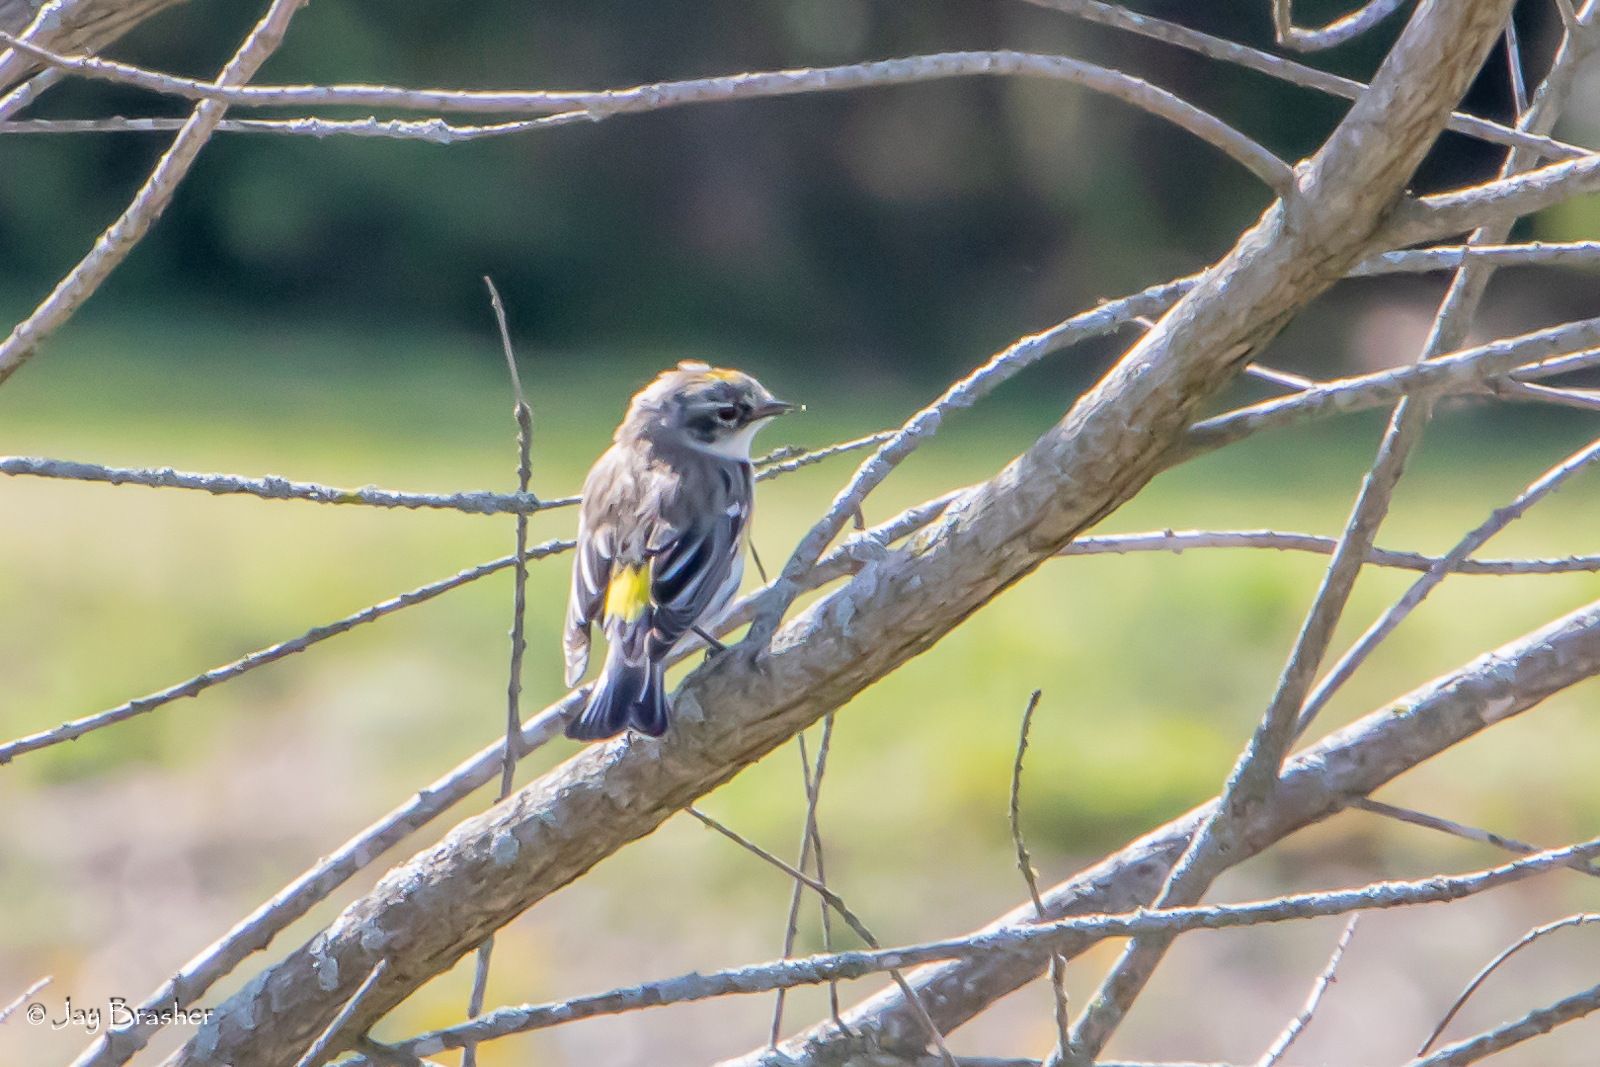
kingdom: Animalia
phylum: Chordata
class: Aves
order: Passeriformes
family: Parulidae
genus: Setophaga
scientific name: Setophaga coronata
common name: Myrtle warbler
